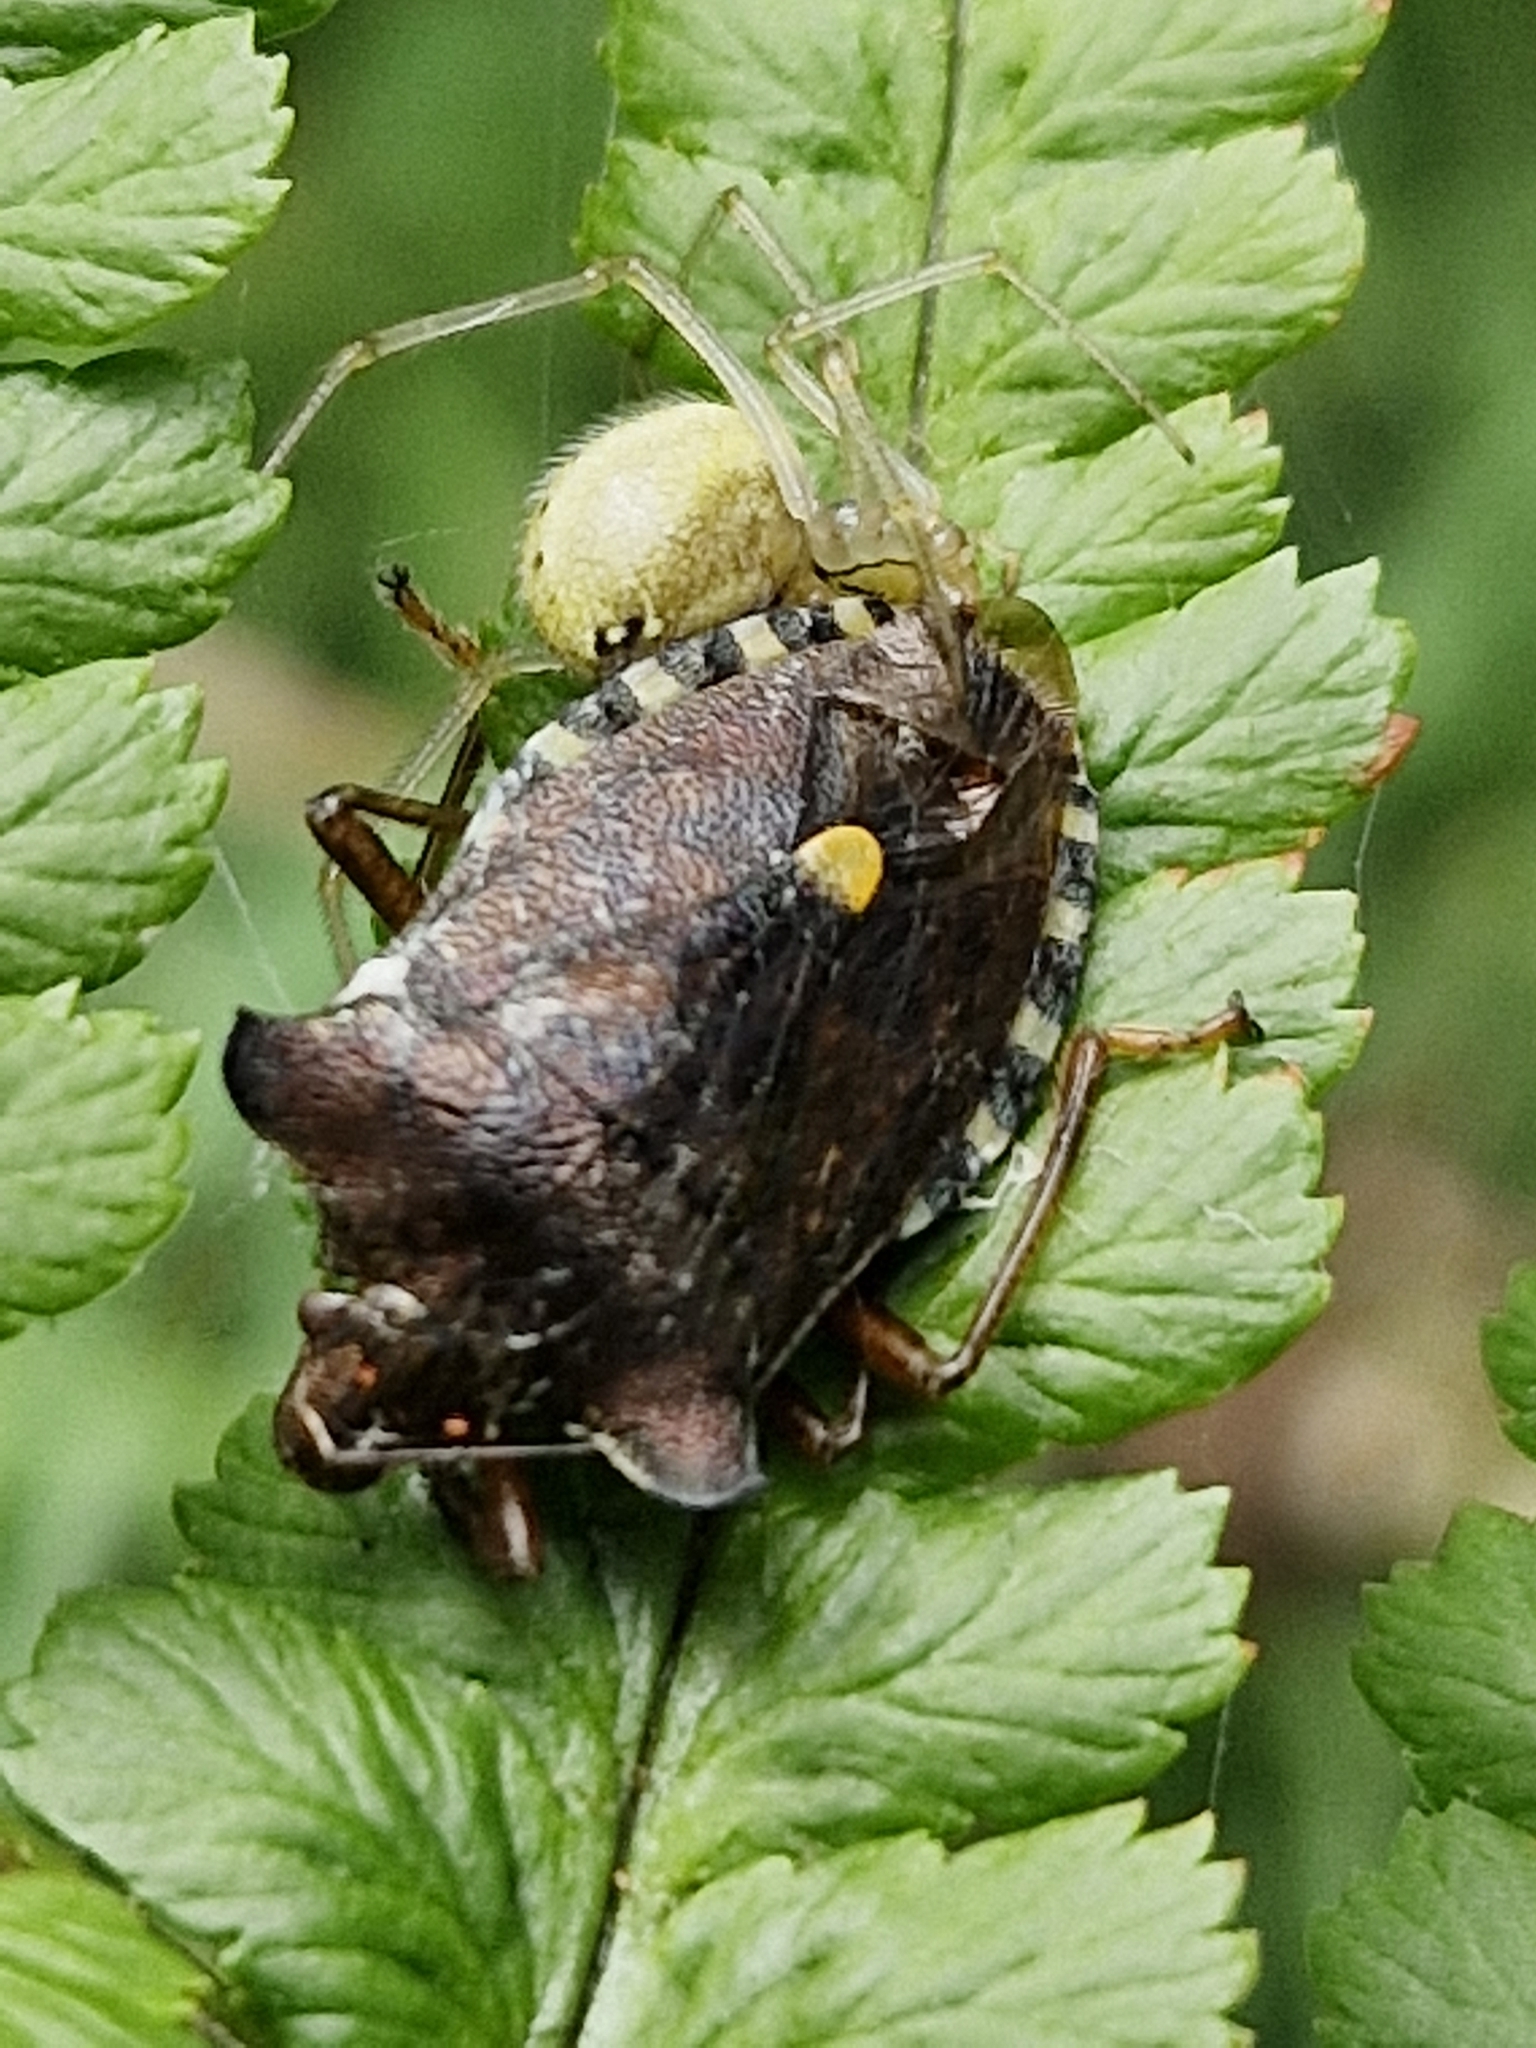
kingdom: Animalia
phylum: Arthropoda
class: Insecta
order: Hemiptera
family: Pentatomidae
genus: Pentatoma
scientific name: Pentatoma rufipes
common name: Forest bug
